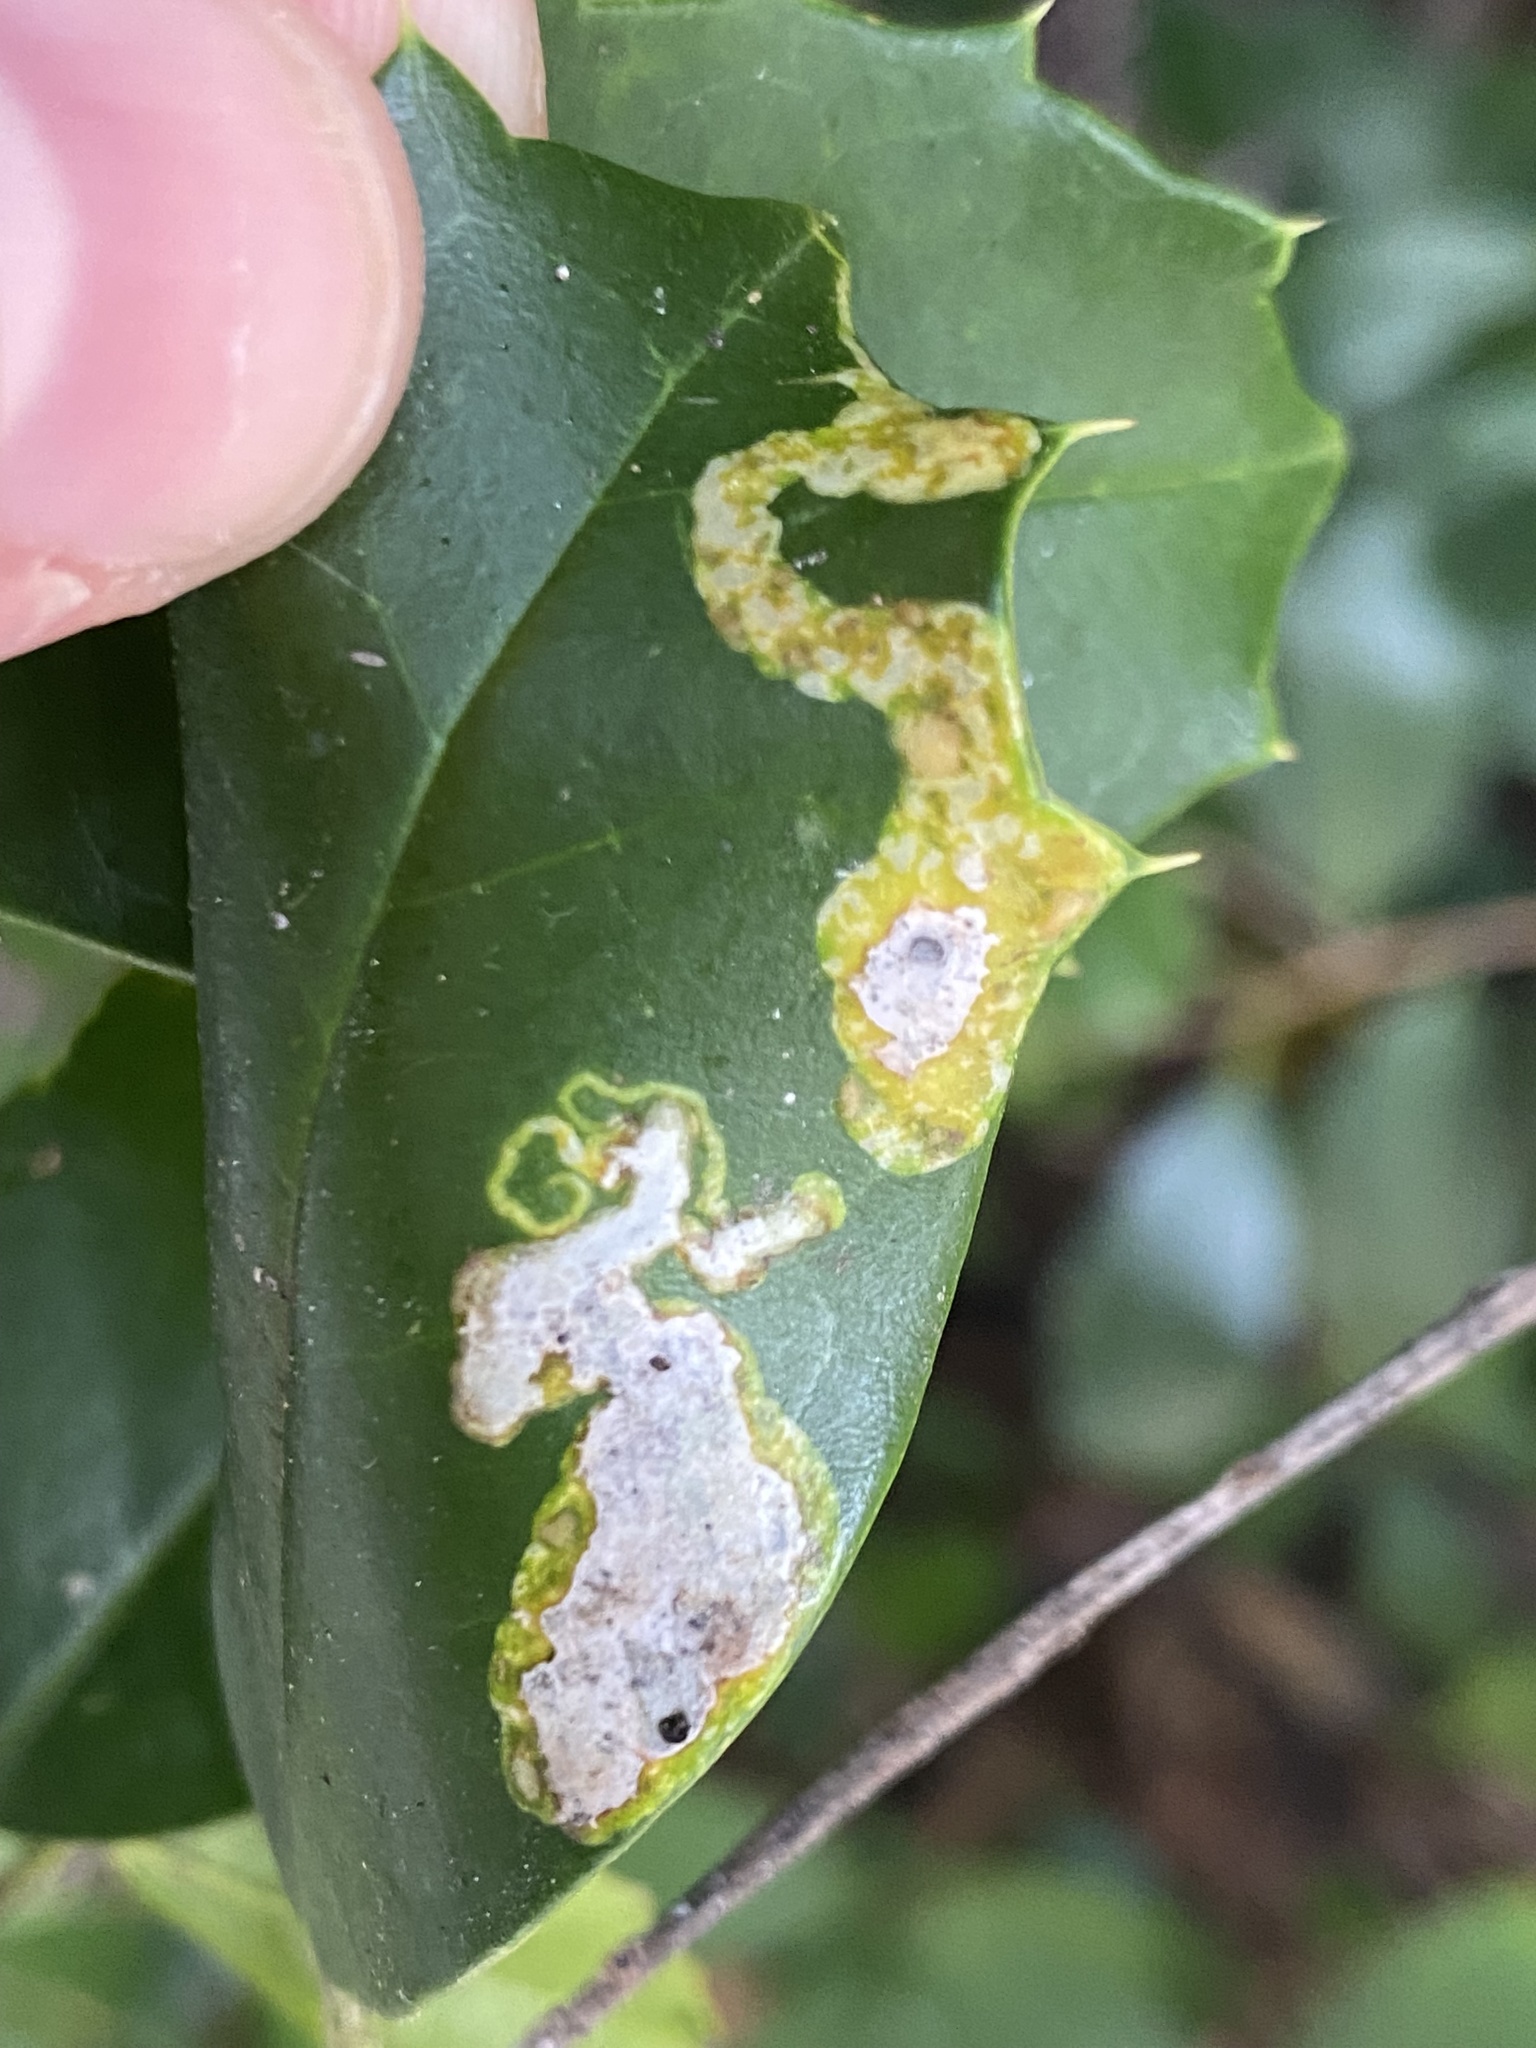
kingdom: Animalia
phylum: Arthropoda
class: Insecta
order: Diptera
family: Agromyzidae
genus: Phytomyza
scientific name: Phytomyza ilicicola
